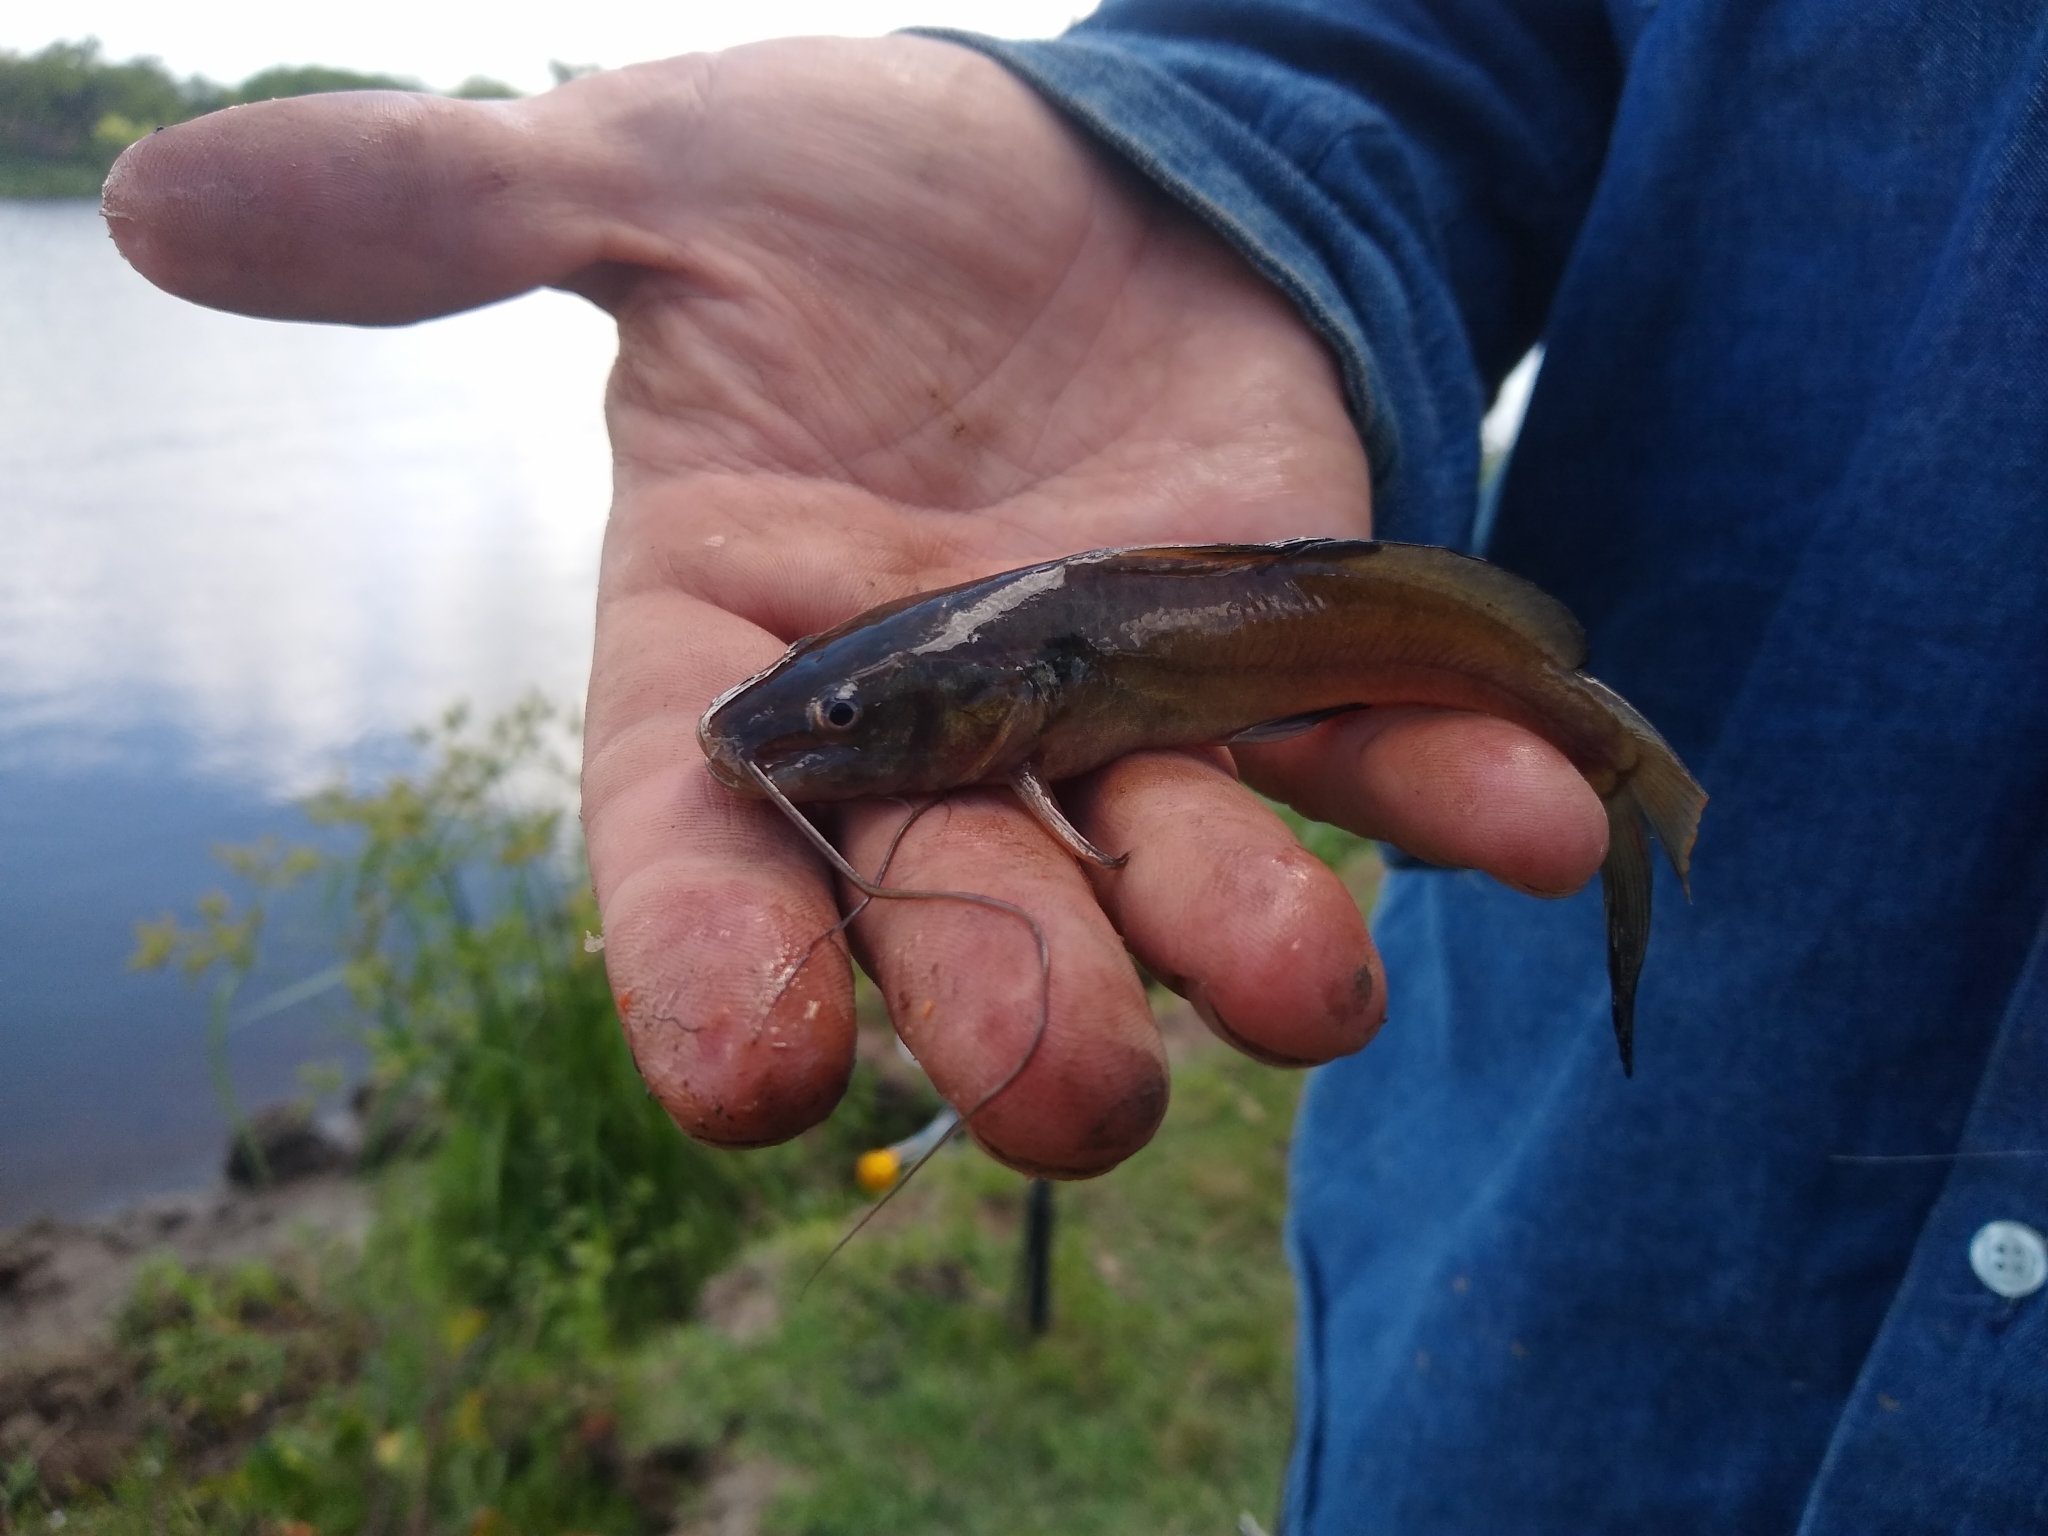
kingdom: Animalia
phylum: Chordata
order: Siluriformes
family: Heptapteridae
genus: Rhamdia
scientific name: Rhamdia quelen
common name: Catfish
